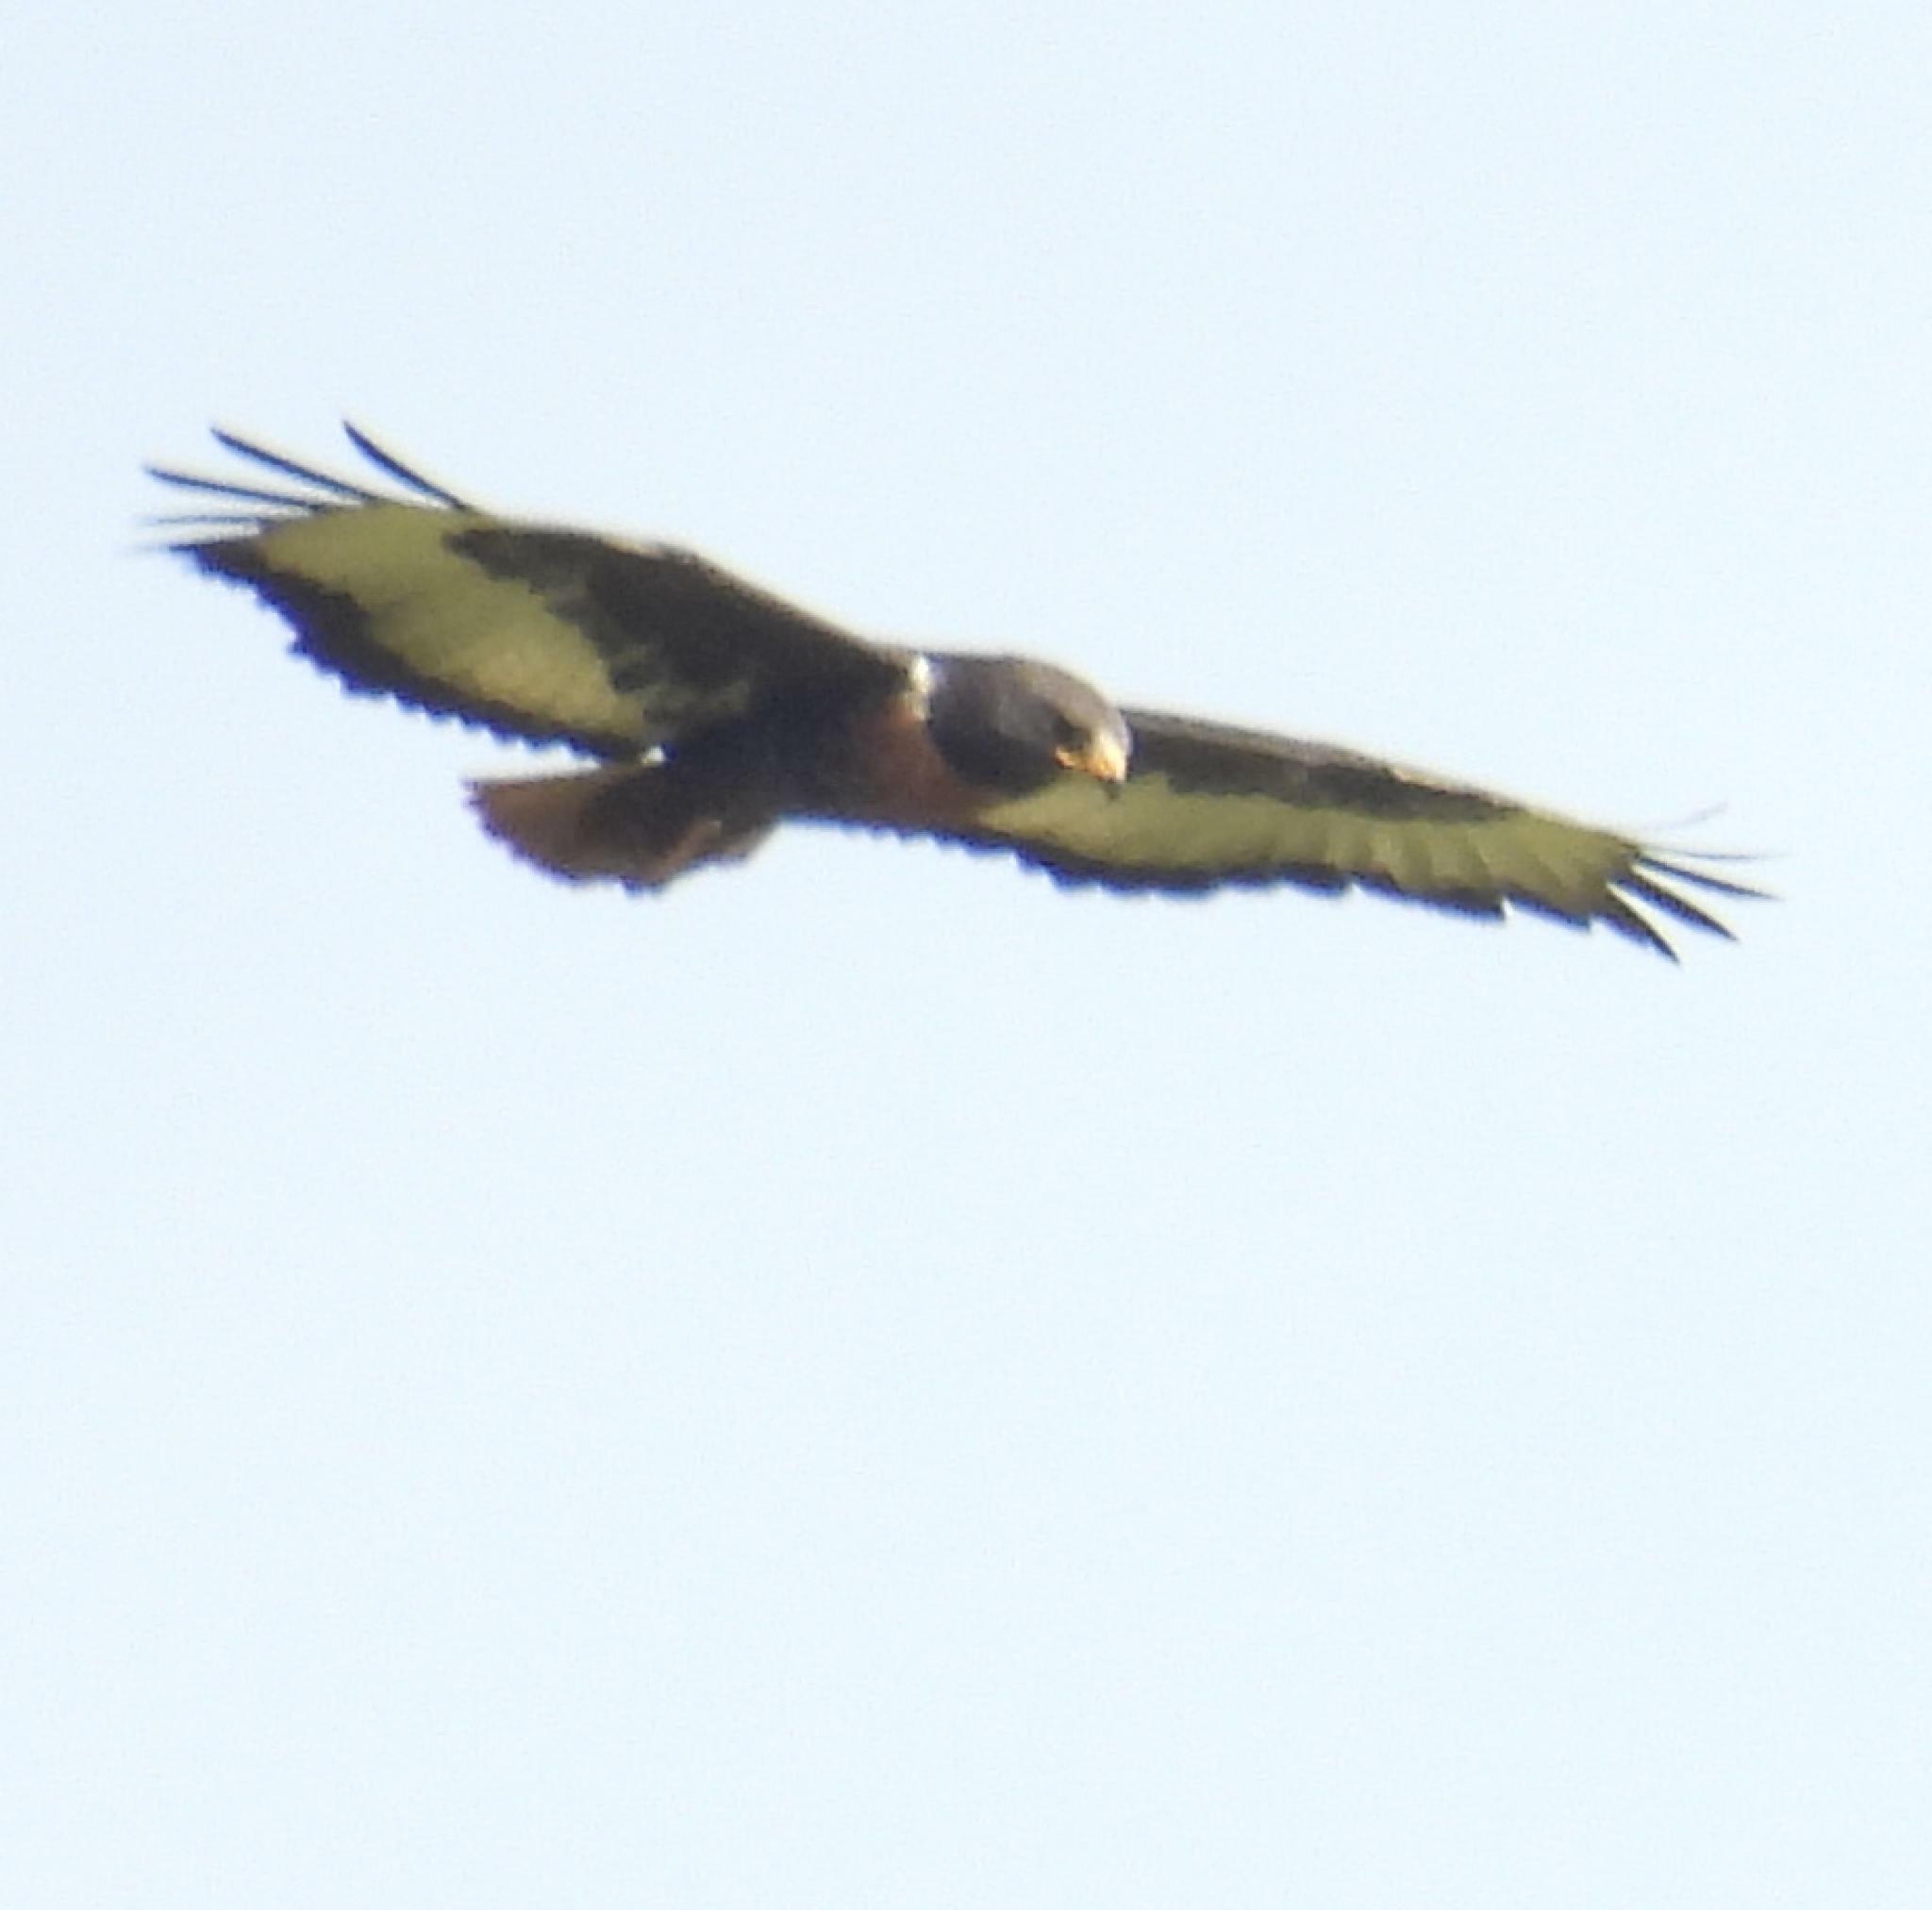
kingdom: Animalia
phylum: Chordata
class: Aves
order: Accipitriformes
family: Accipitridae
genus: Buteo
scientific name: Buteo rufofuscus
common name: Jackal buzzard
